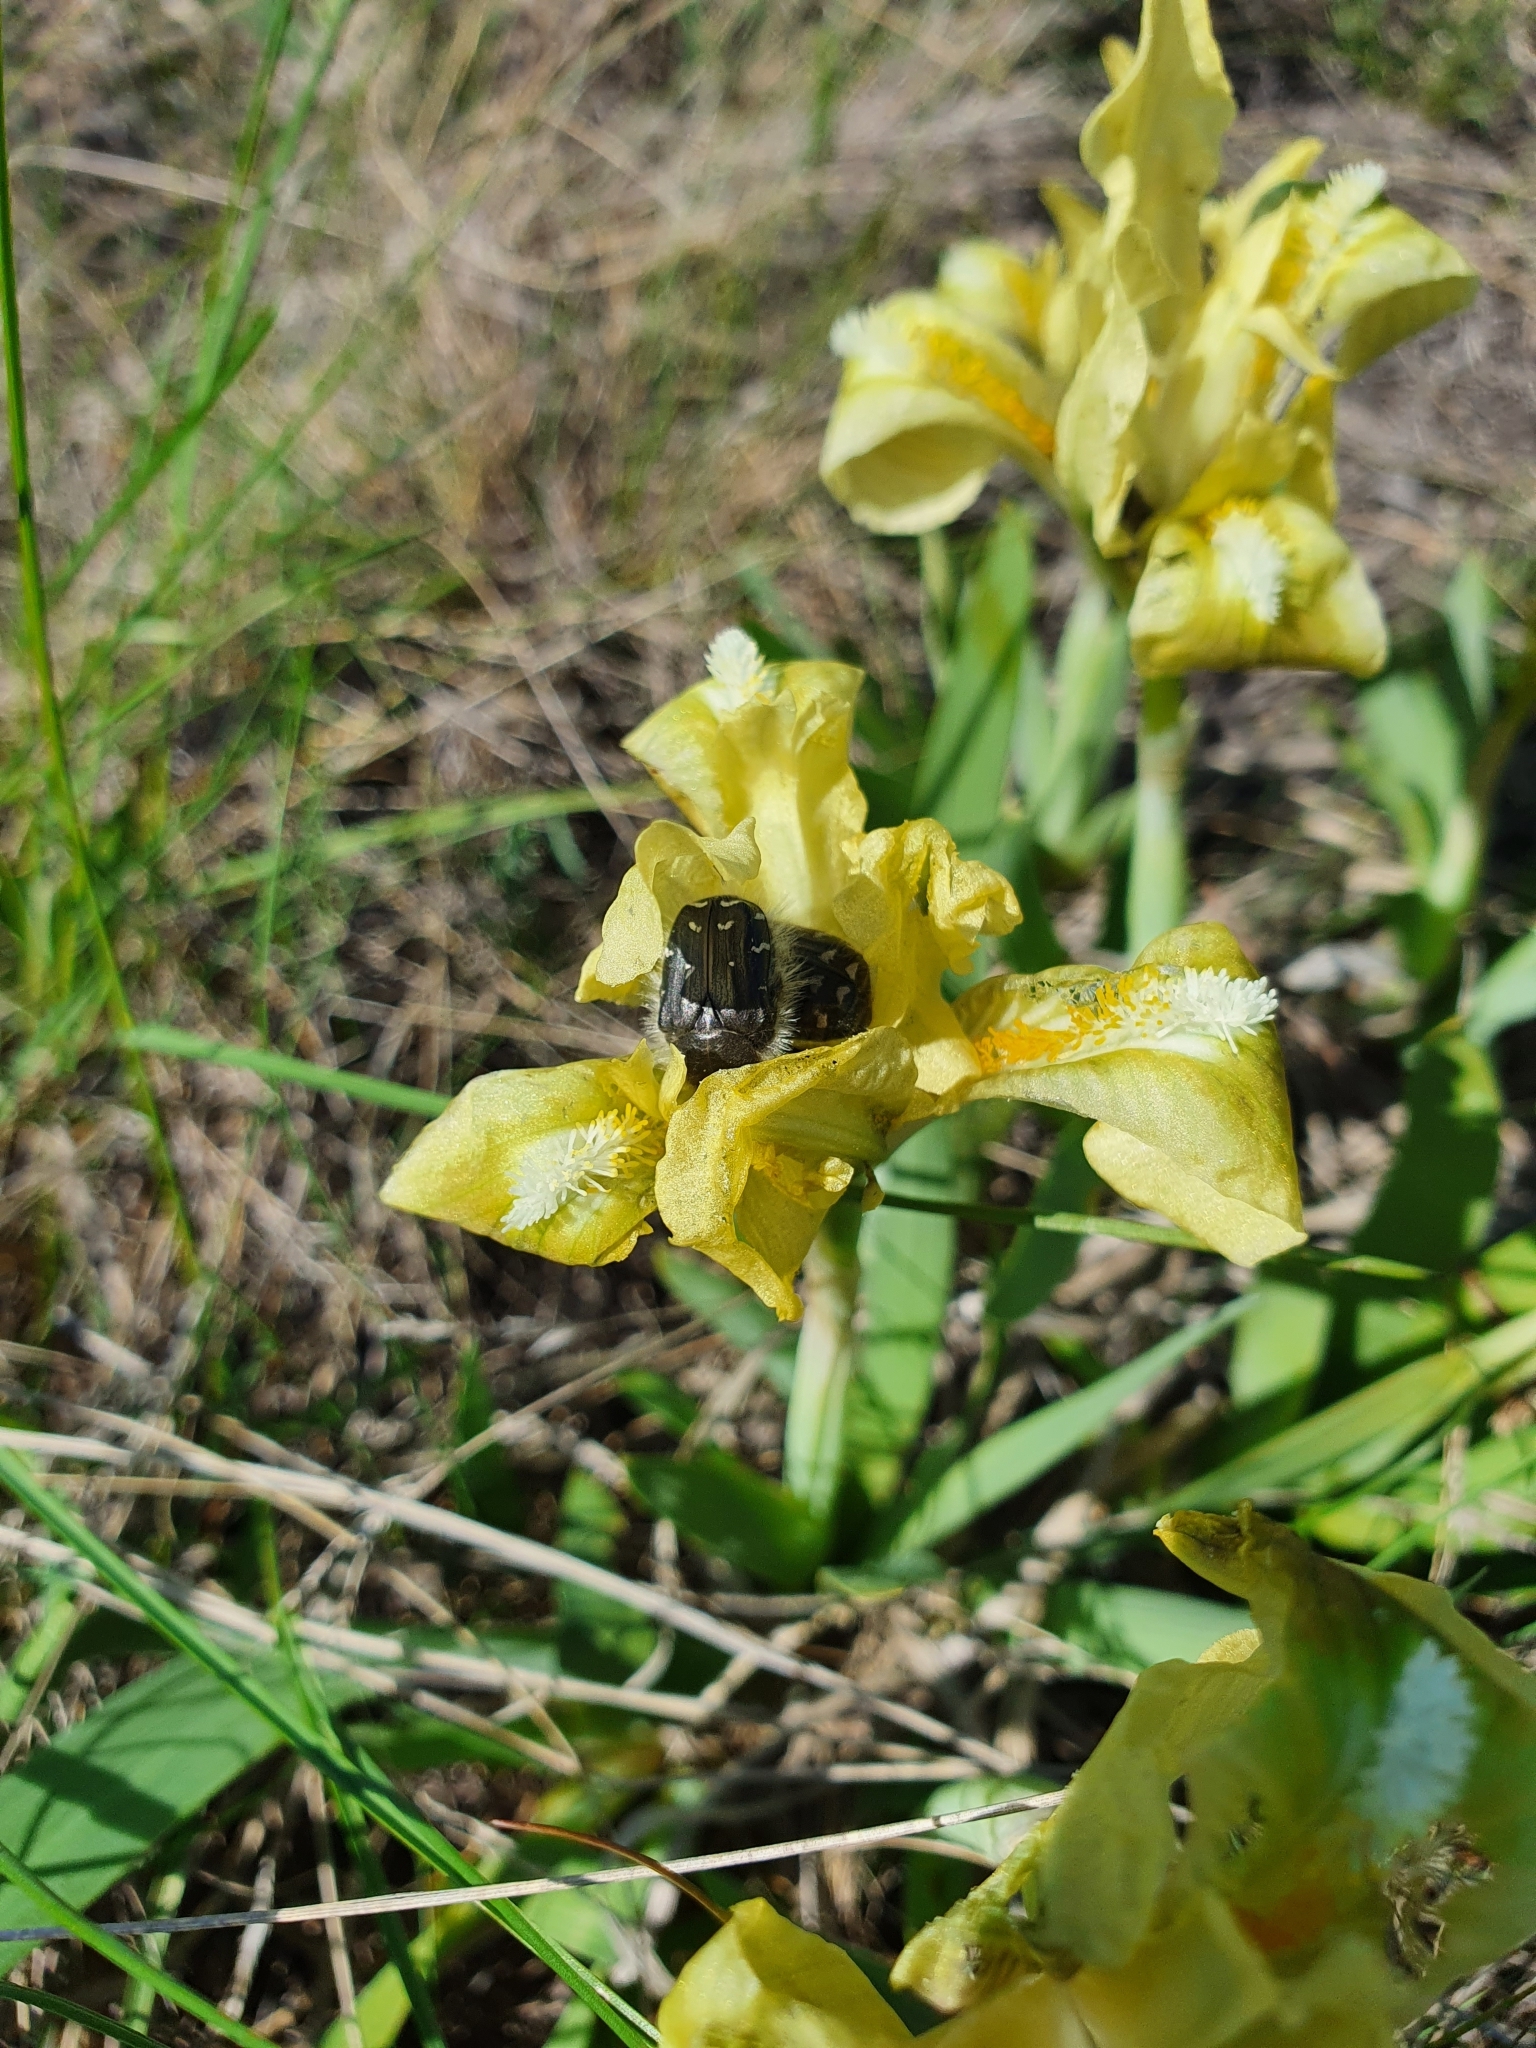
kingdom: Plantae
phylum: Tracheophyta
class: Liliopsida
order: Asparagales
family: Iridaceae
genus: Iris
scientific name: Iris pumila
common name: Dwarf iris
